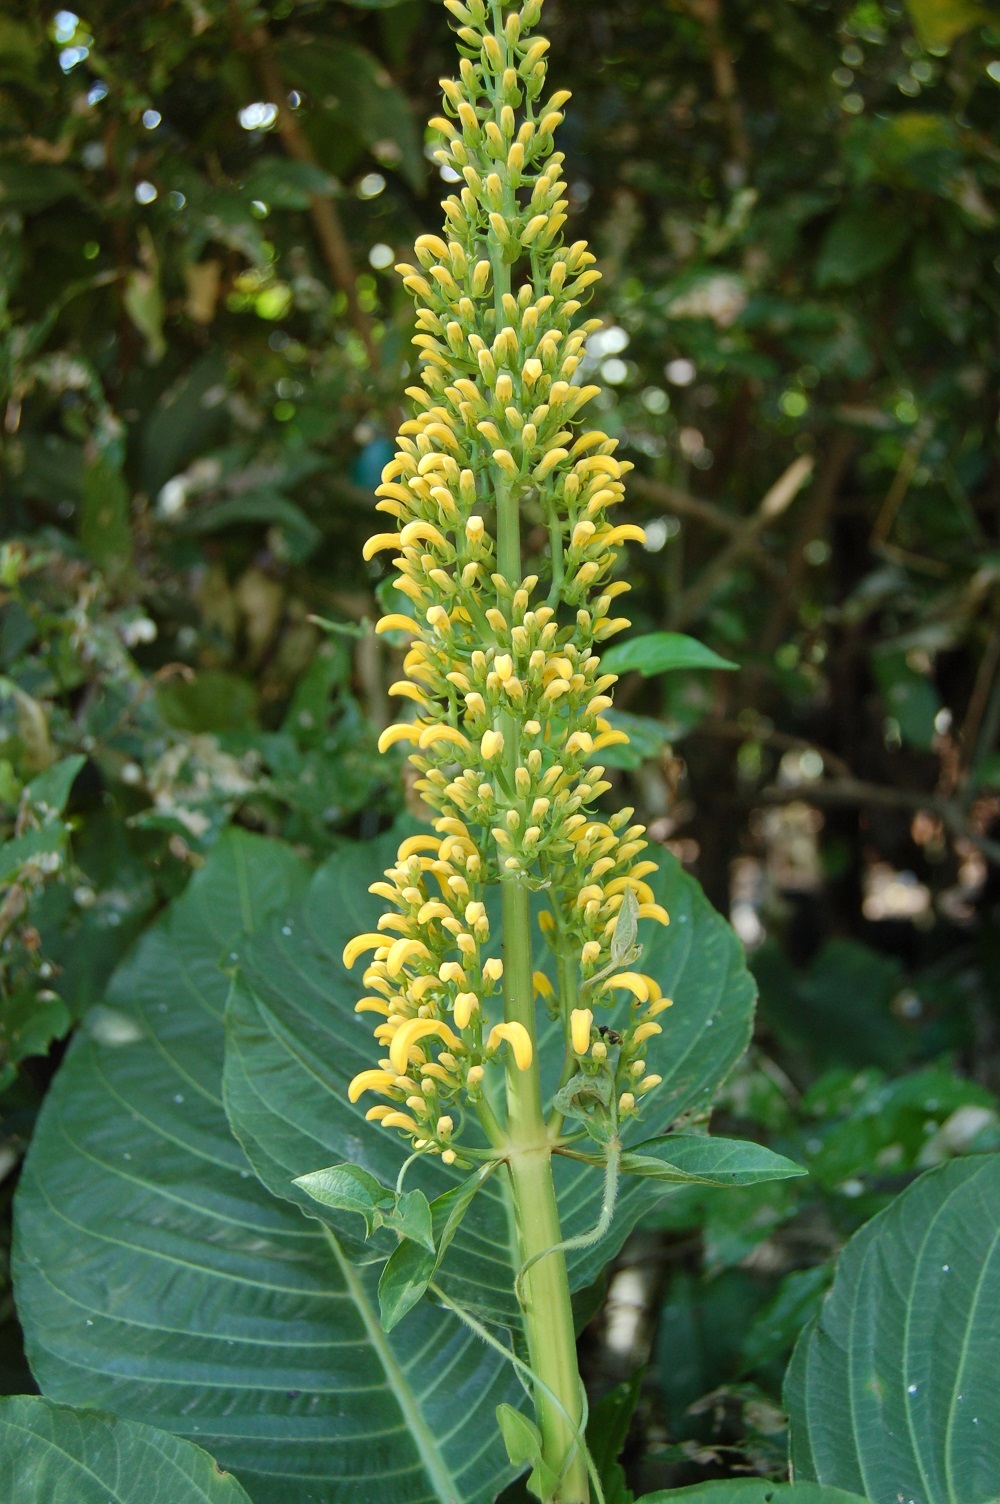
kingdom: Plantae
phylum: Tracheophyta
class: Magnoliopsida
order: Lamiales
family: Acanthaceae
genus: Justicia
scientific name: Justicia aurea
